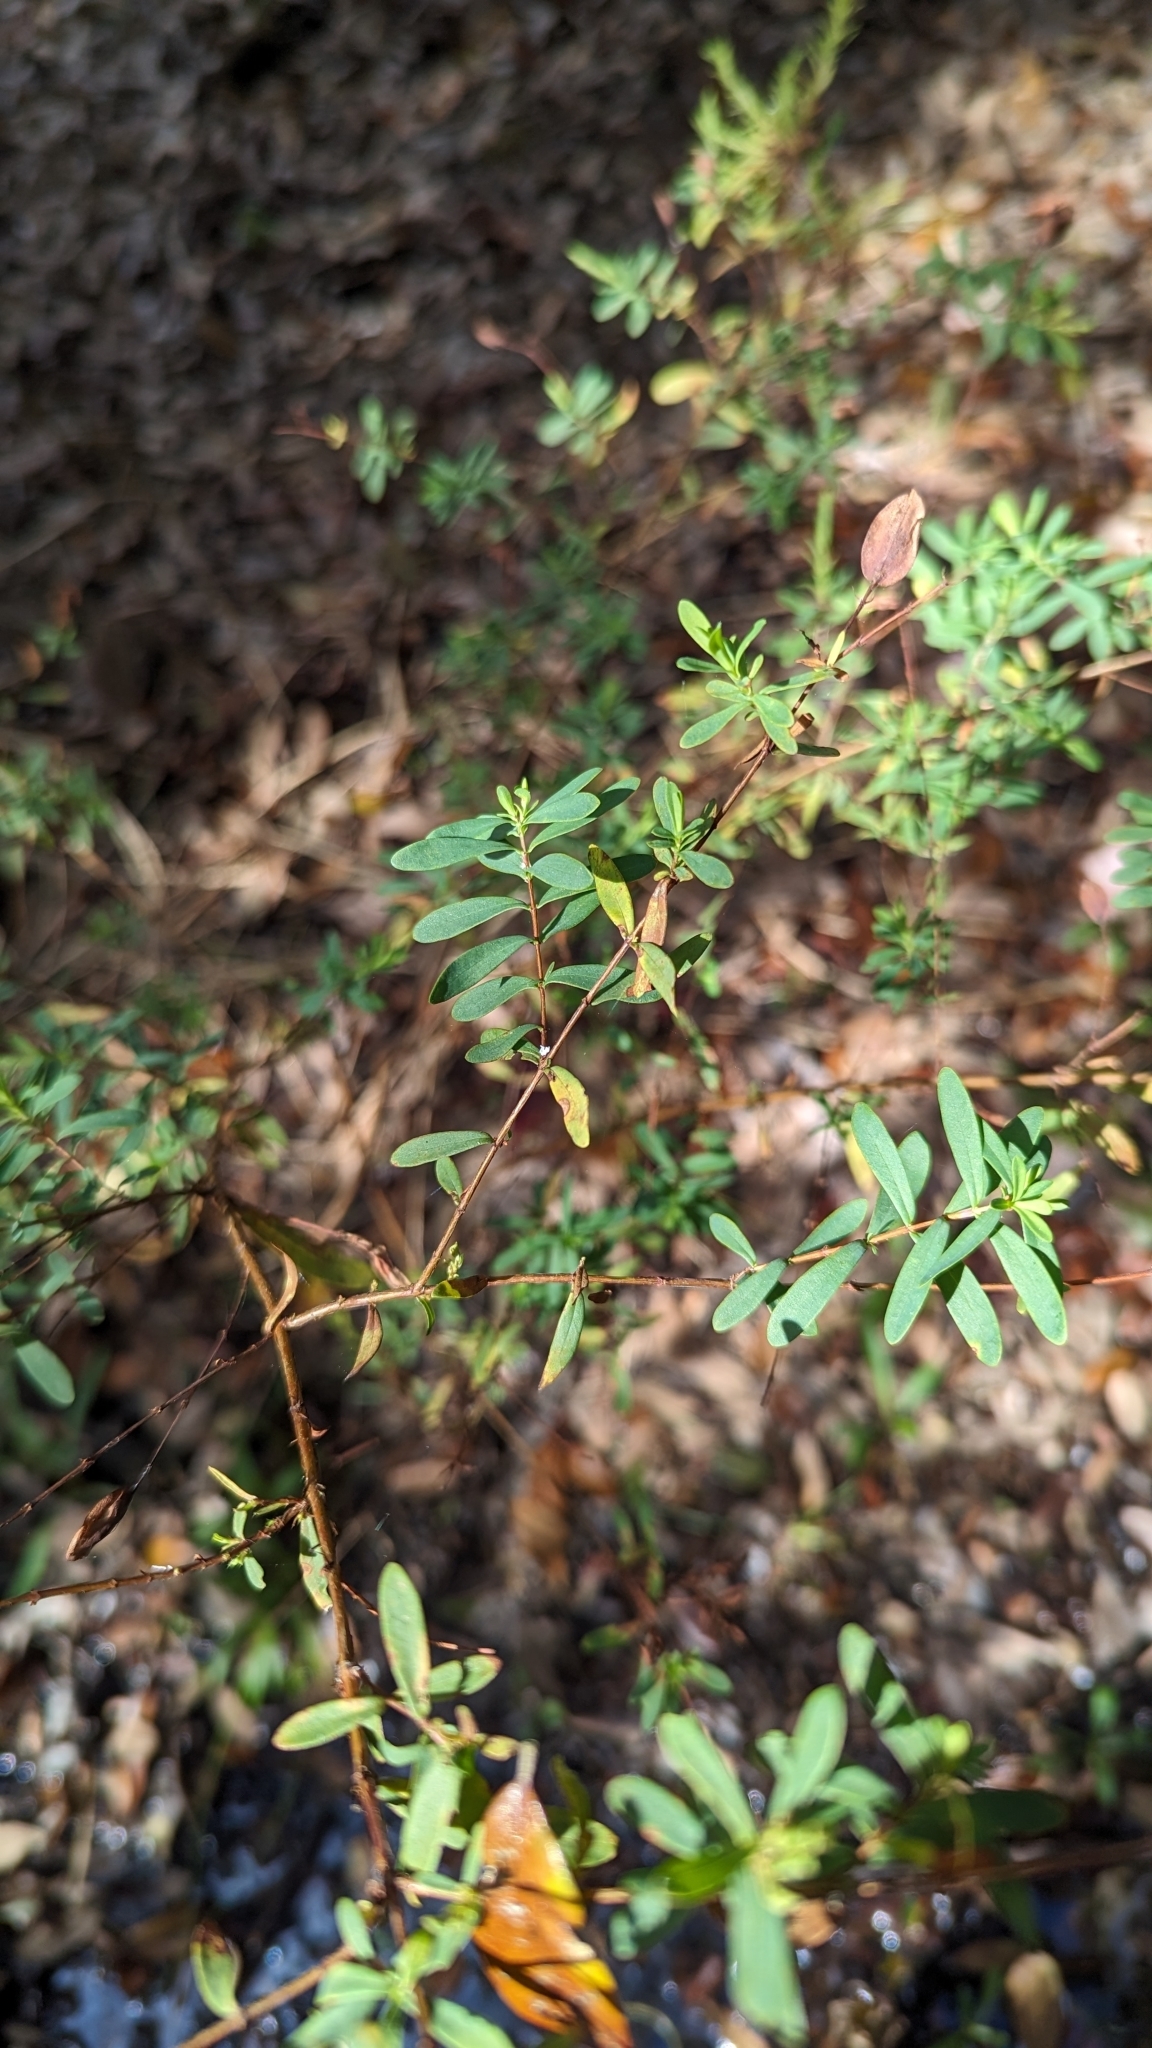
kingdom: Plantae
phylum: Tracheophyta
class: Magnoliopsida
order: Malpighiales
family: Hypericaceae
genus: Hypericum
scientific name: Hypericum hypericoides
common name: St. andrew's cross
